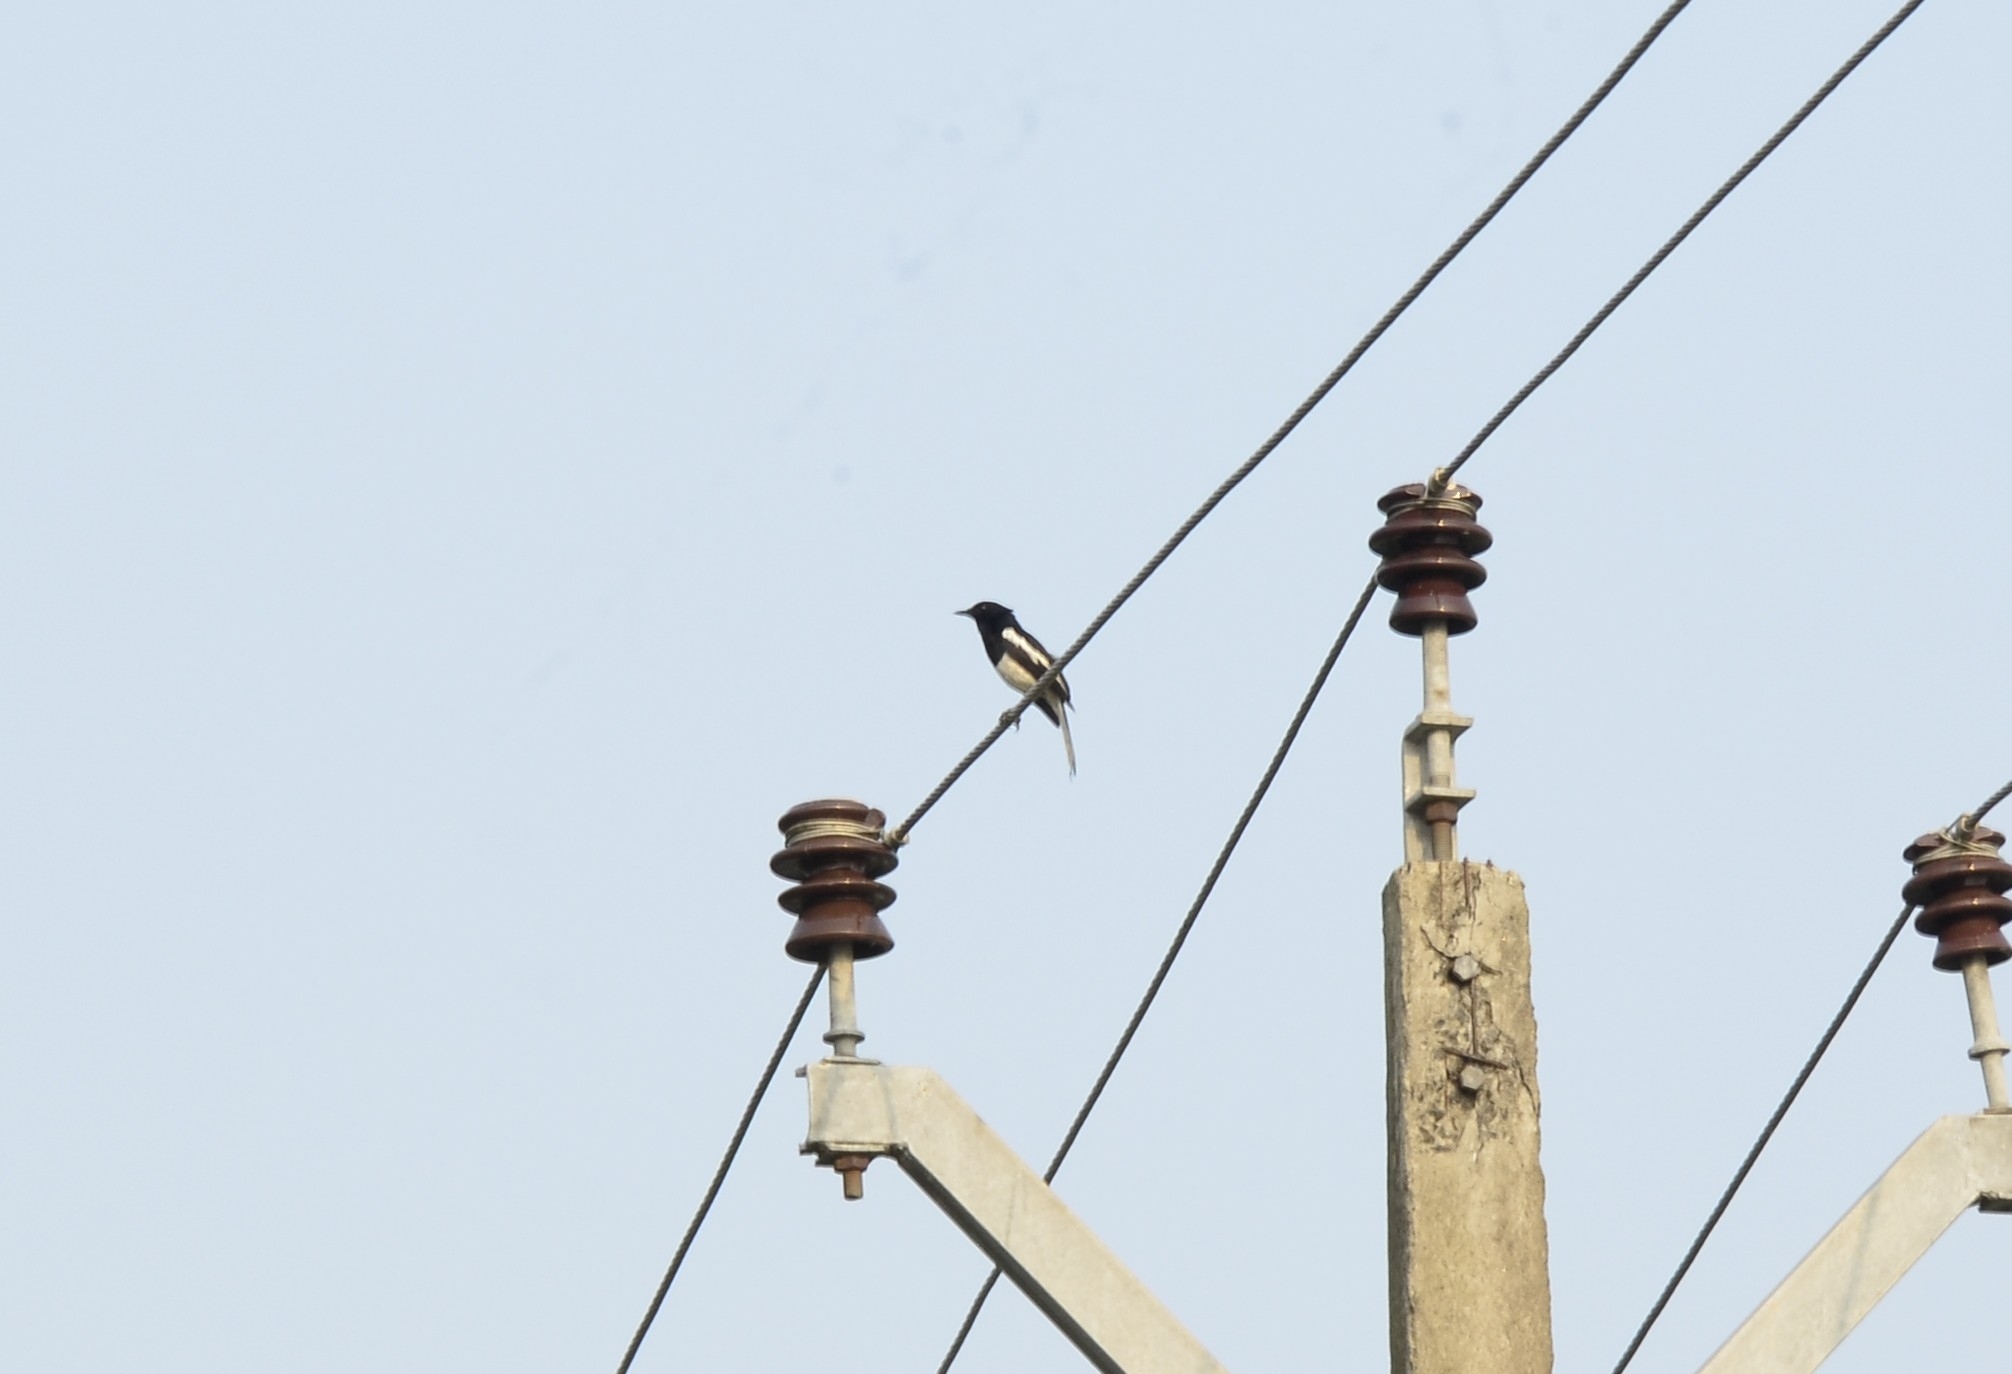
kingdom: Animalia
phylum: Chordata
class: Aves
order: Passeriformes
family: Muscicapidae
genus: Copsychus
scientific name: Copsychus saularis
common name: Oriental magpie-robin
